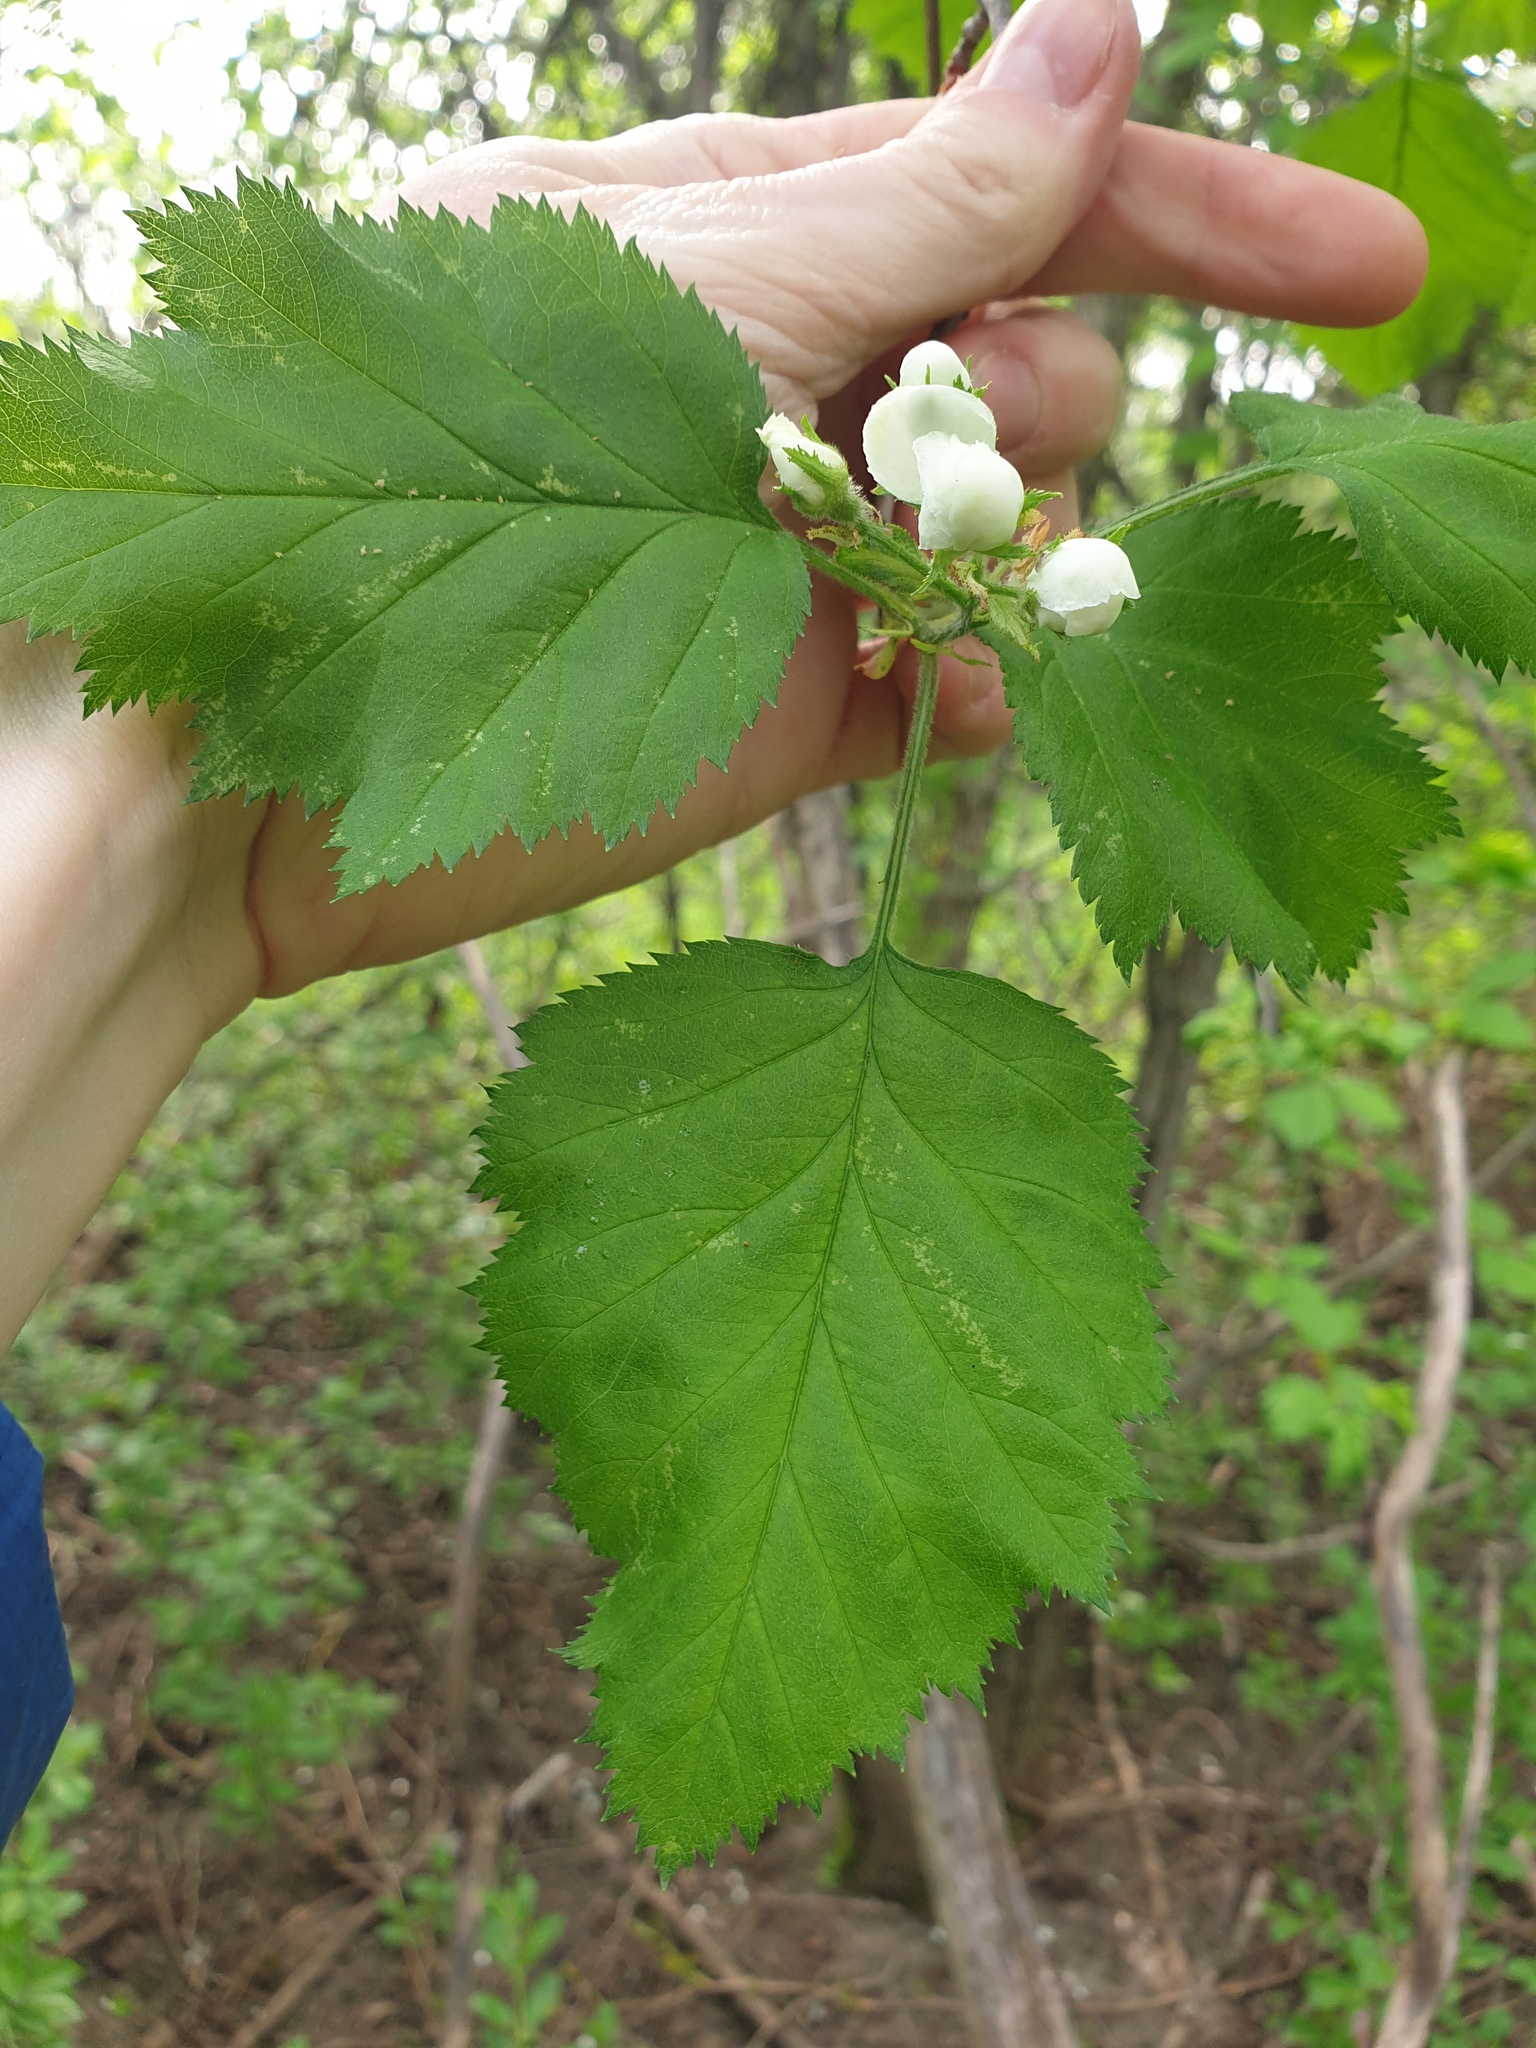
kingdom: Plantae
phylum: Tracheophyta
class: Magnoliopsida
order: Rosales
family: Rosaceae
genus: Crataegus
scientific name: Crataegus submollis
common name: Hairy cockspurthorn
